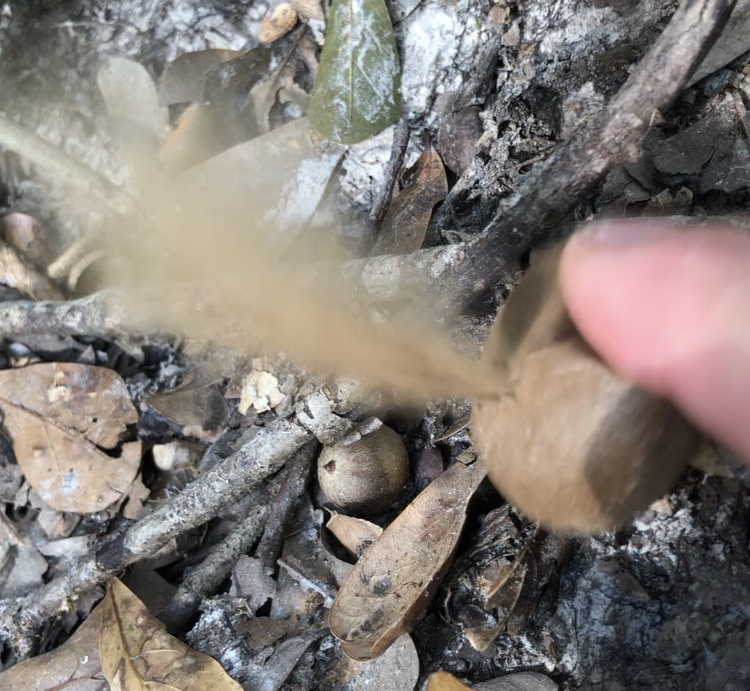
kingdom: Fungi
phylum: Basidiomycota
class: Agaricomycetes
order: Agaricales
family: Lycoperdaceae
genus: Apioperdon
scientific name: Apioperdon pyriforme
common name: Pear-shaped puffball
